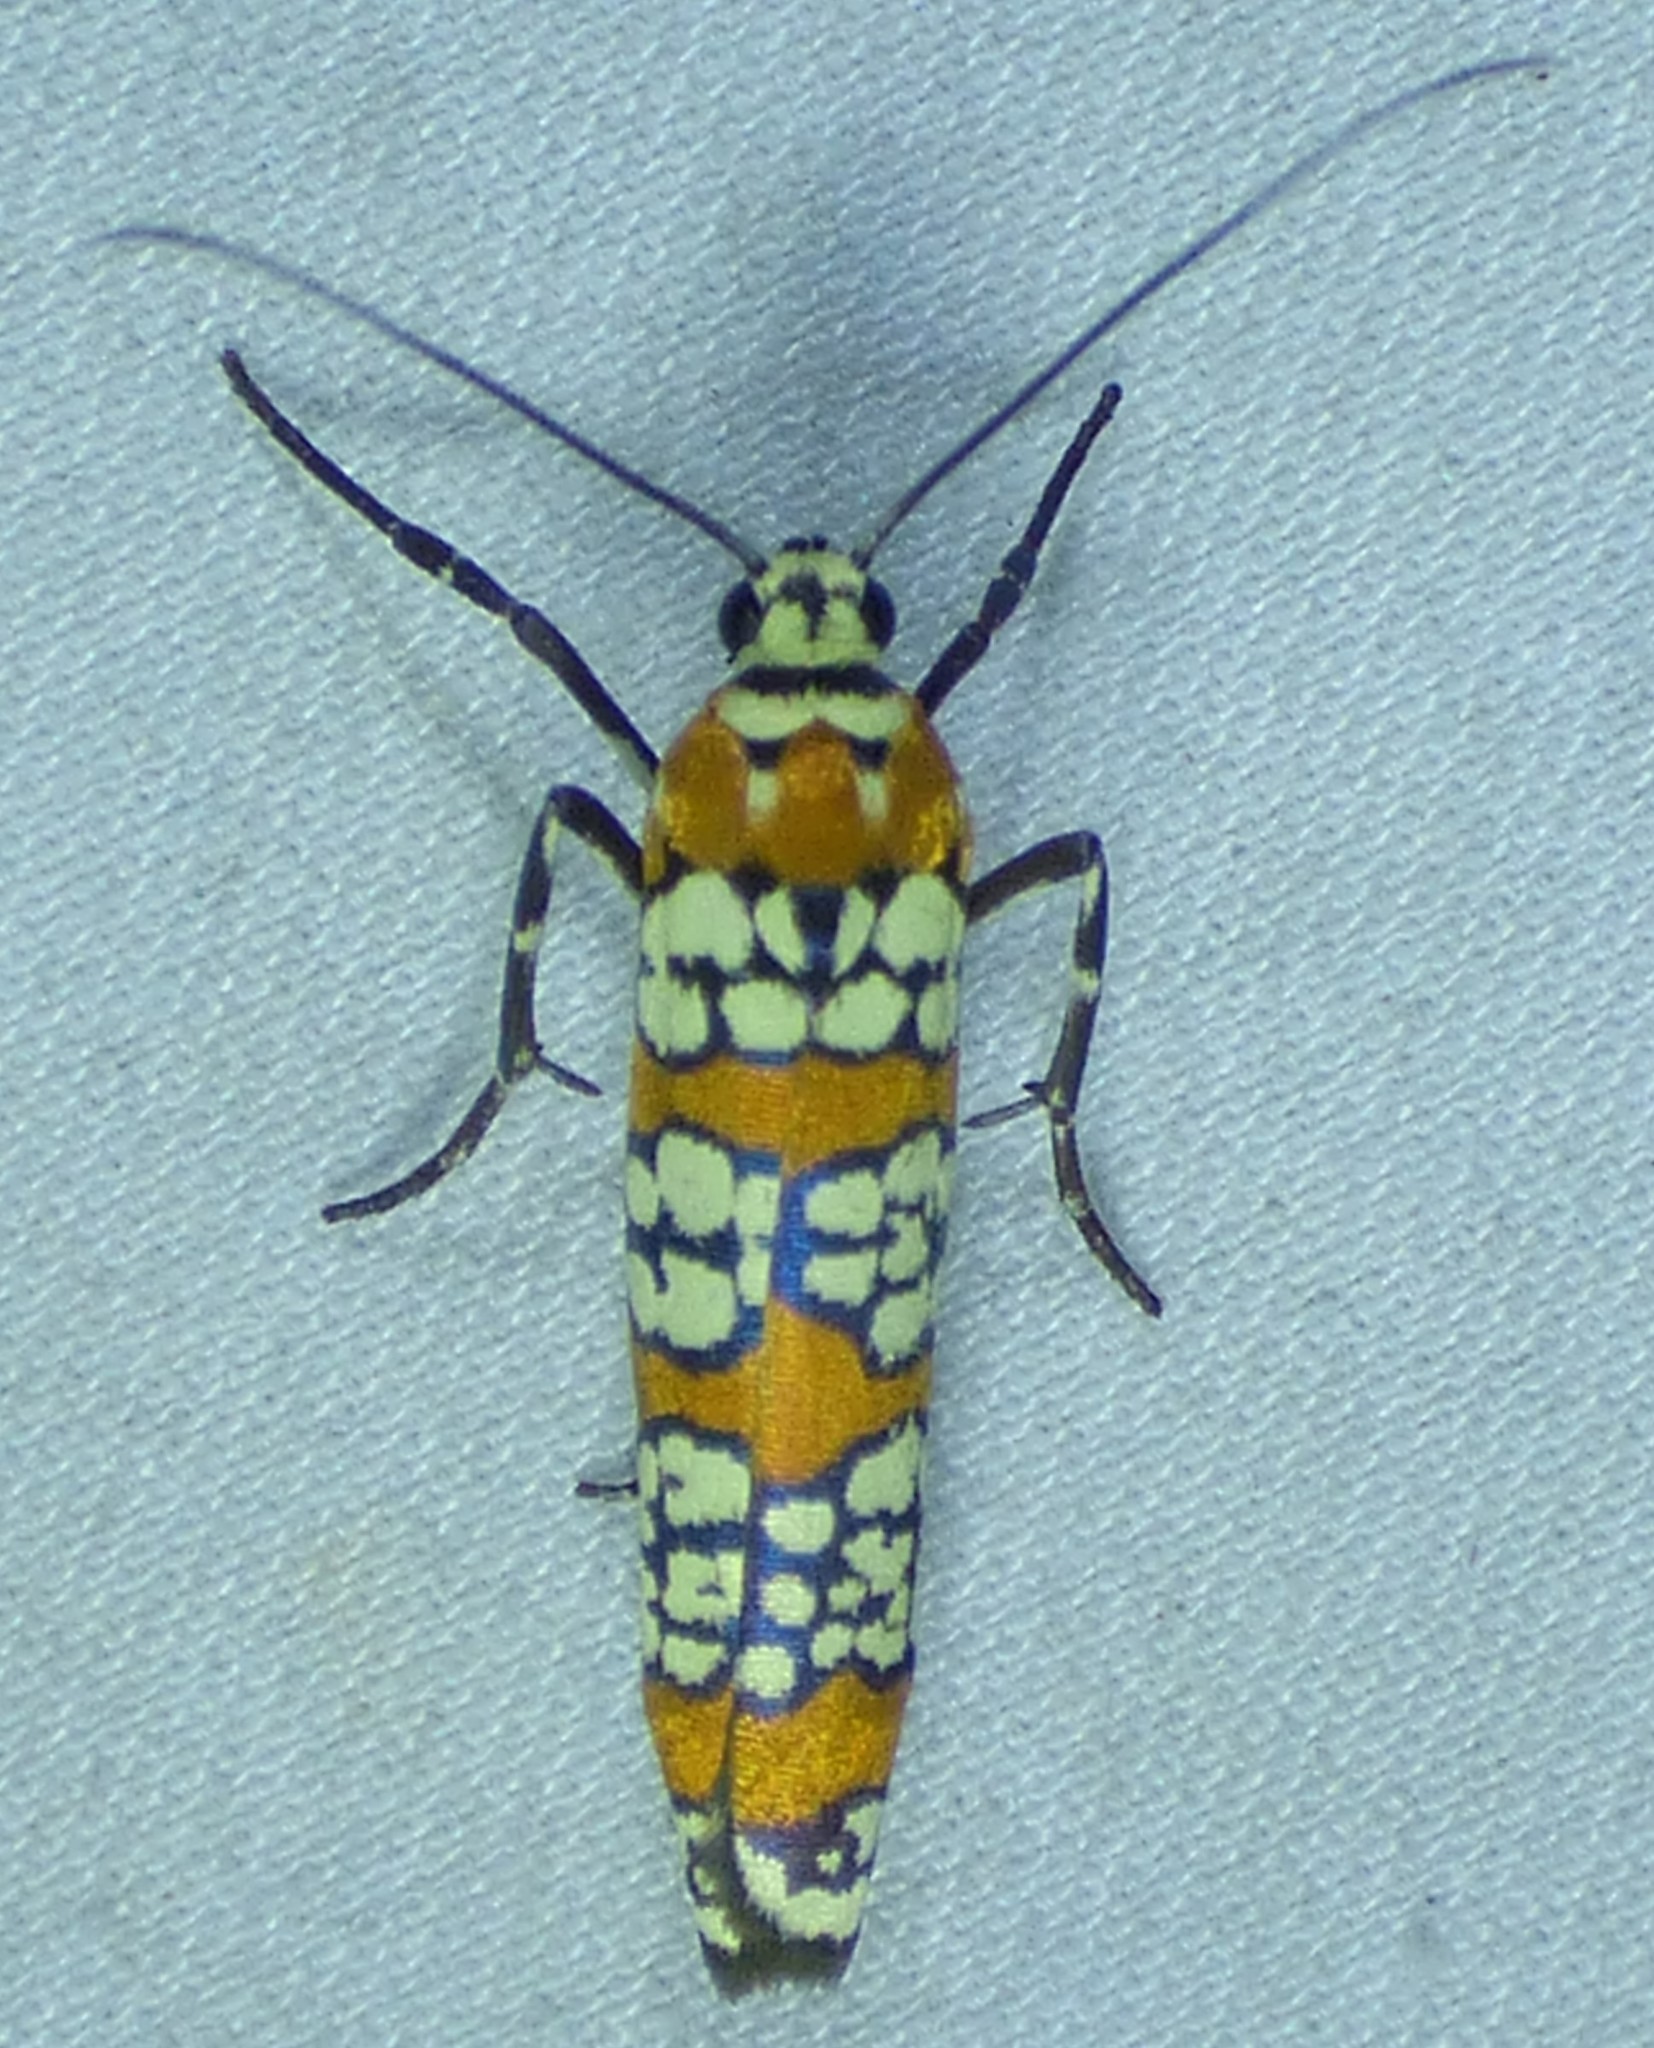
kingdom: Animalia
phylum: Arthropoda
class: Insecta
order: Lepidoptera
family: Attevidae
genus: Atteva
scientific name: Atteva punctella
